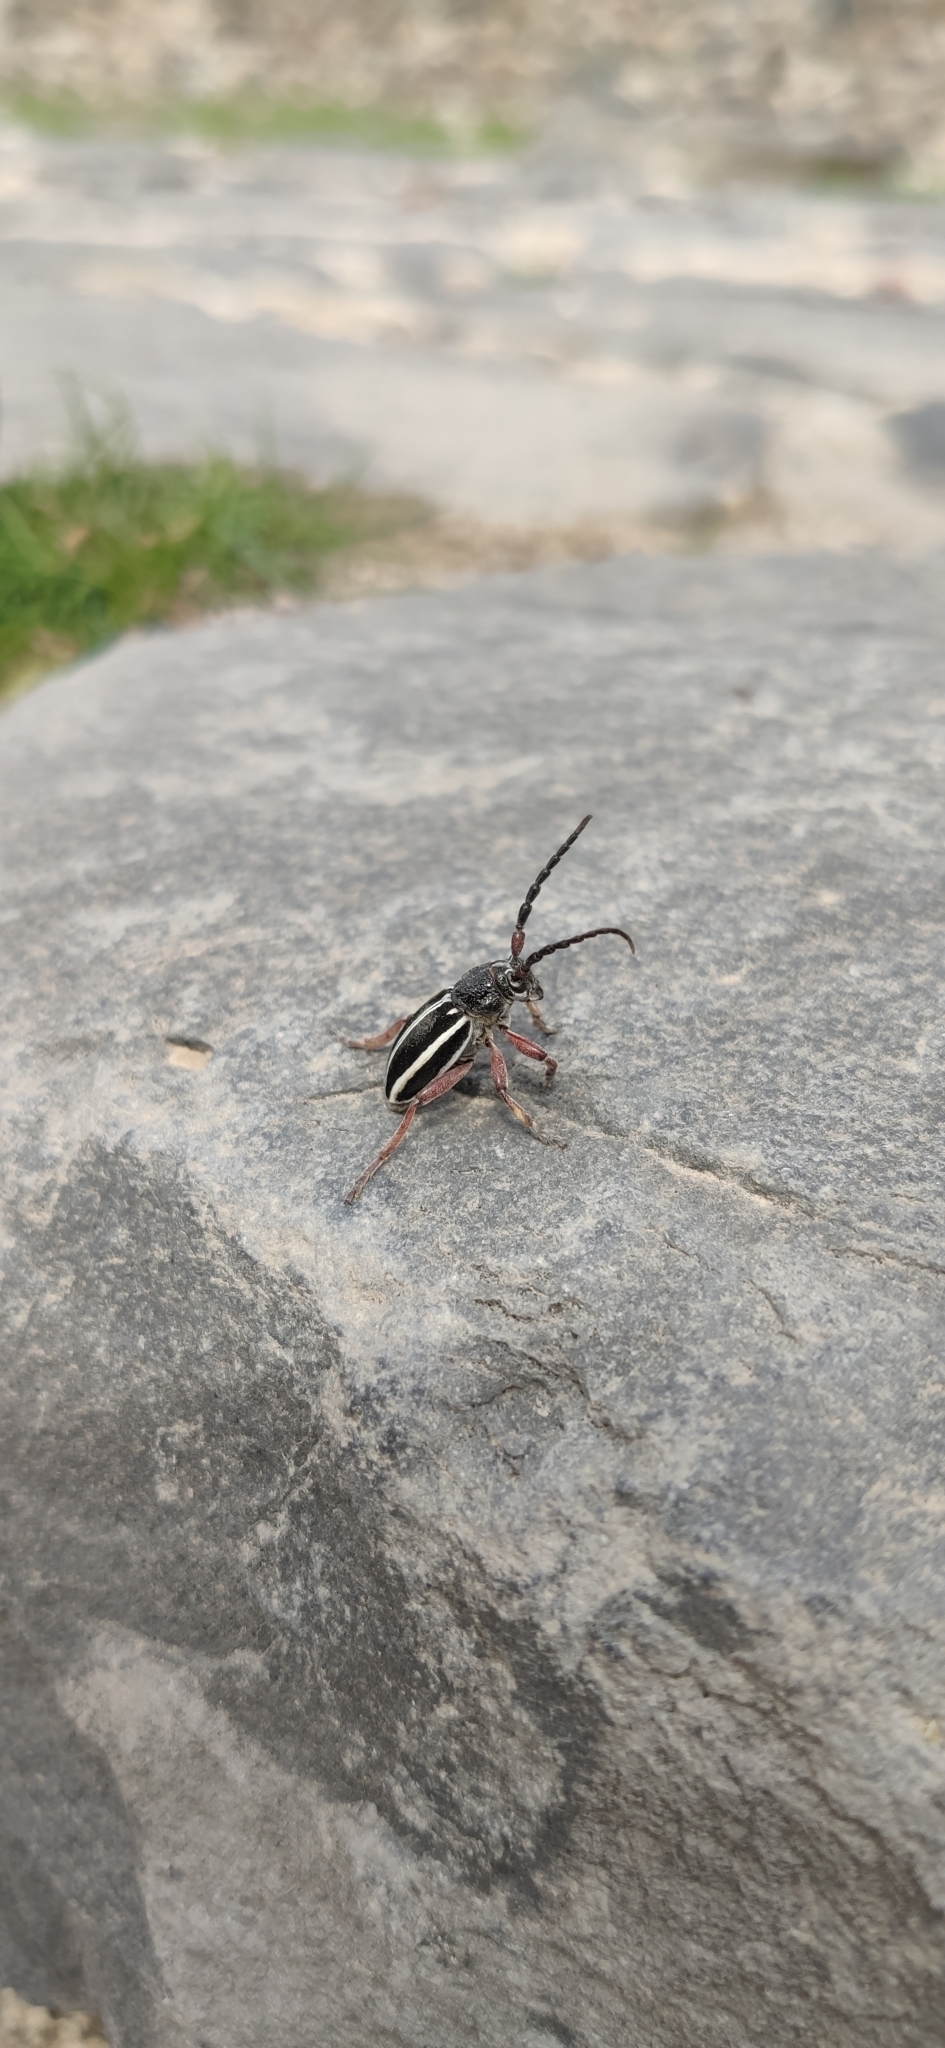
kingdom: Animalia
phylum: Arthropoda
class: Insecta
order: Coleoptera
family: Cerambycidae
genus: Dorcadion
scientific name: Dorcadion scabricolle
